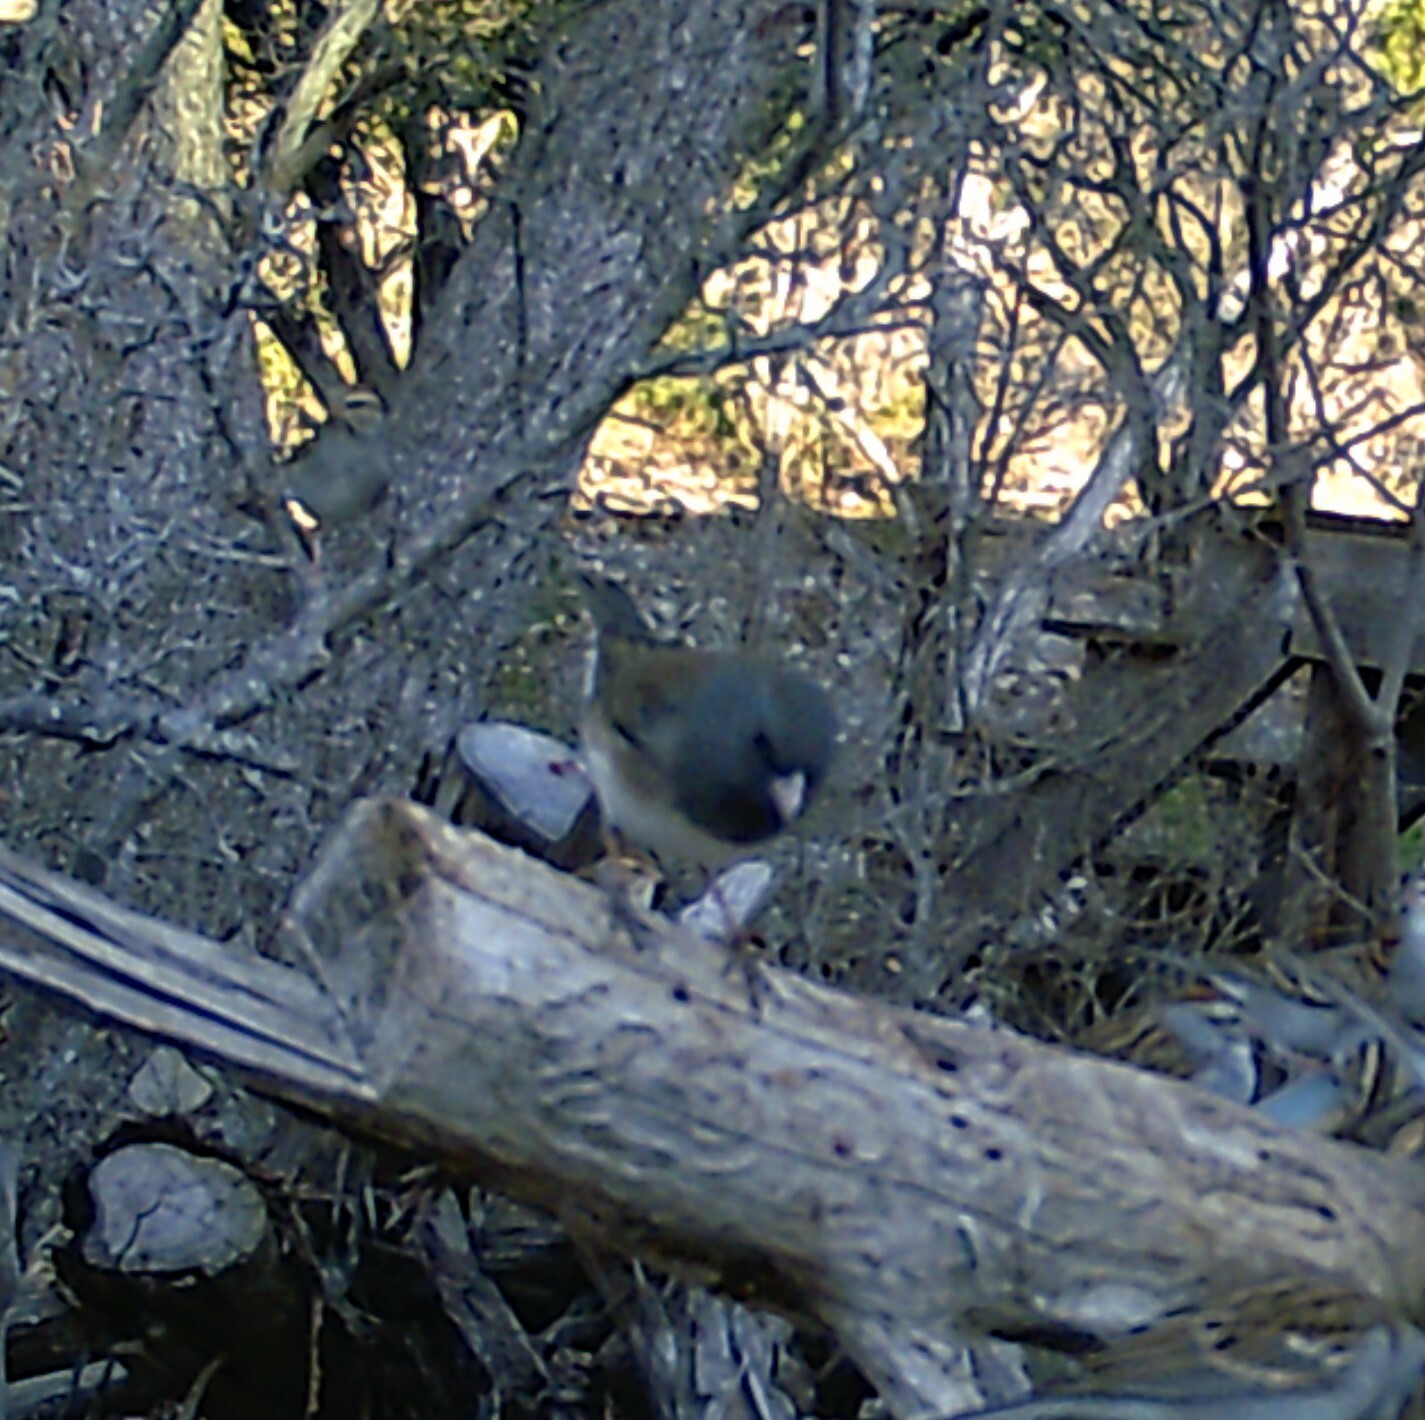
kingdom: Animalia
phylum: Chordata
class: Aves
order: Passeriformes
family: Passerellidae
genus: Junco
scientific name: Junco hyemalis
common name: Dark-eyed junco
